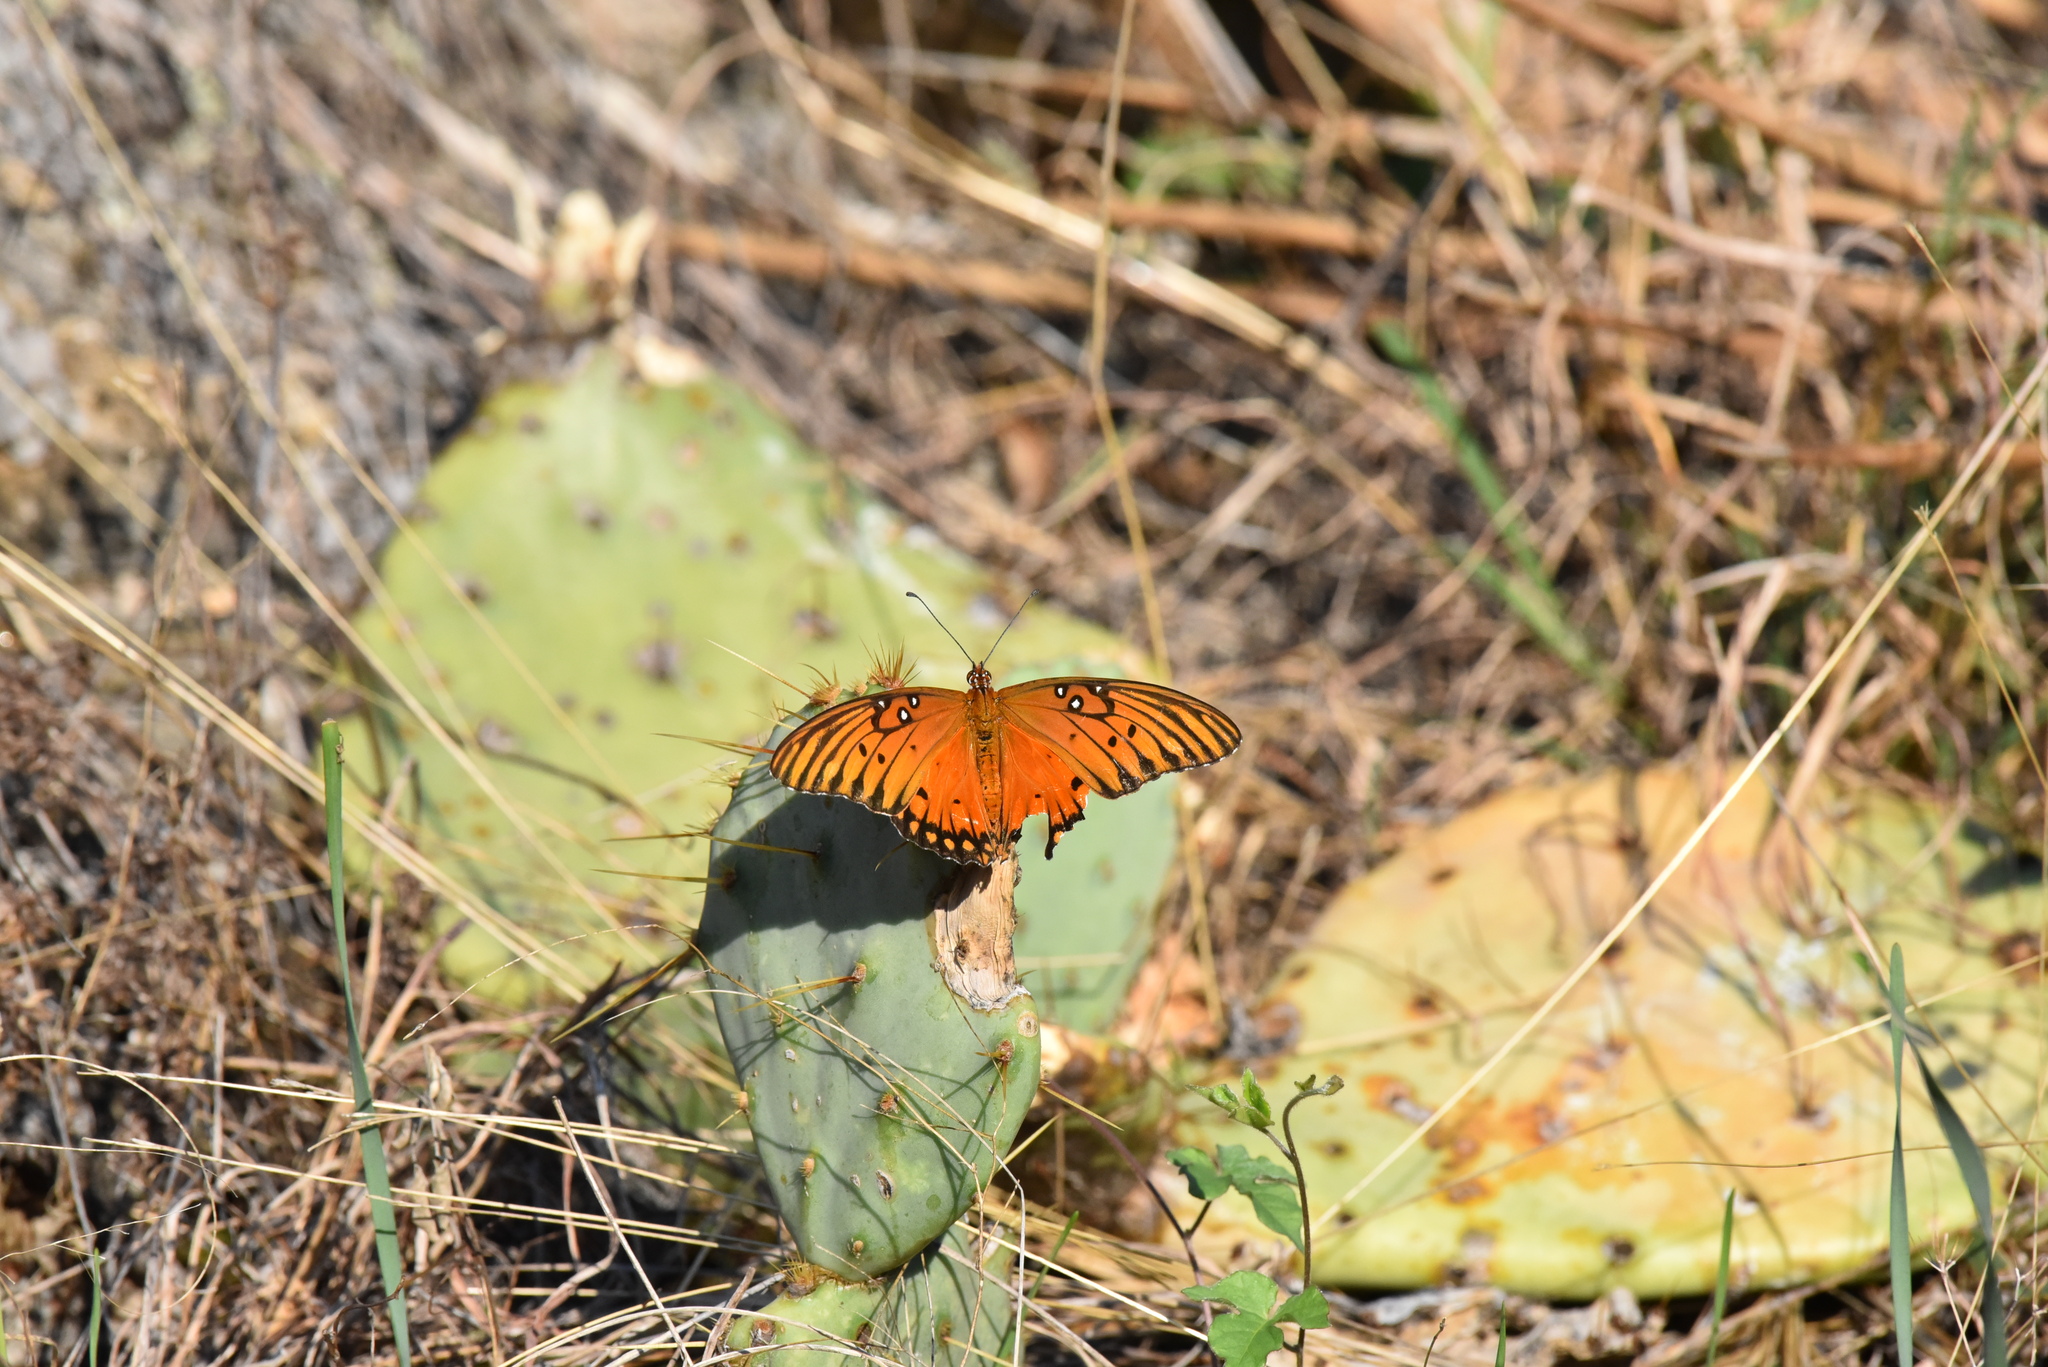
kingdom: Animalia
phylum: Arthropoda
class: Insecta
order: Lepidoptera
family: Nymphalidae
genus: Dione
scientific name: Dione vanillae
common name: Gulf fritillary
